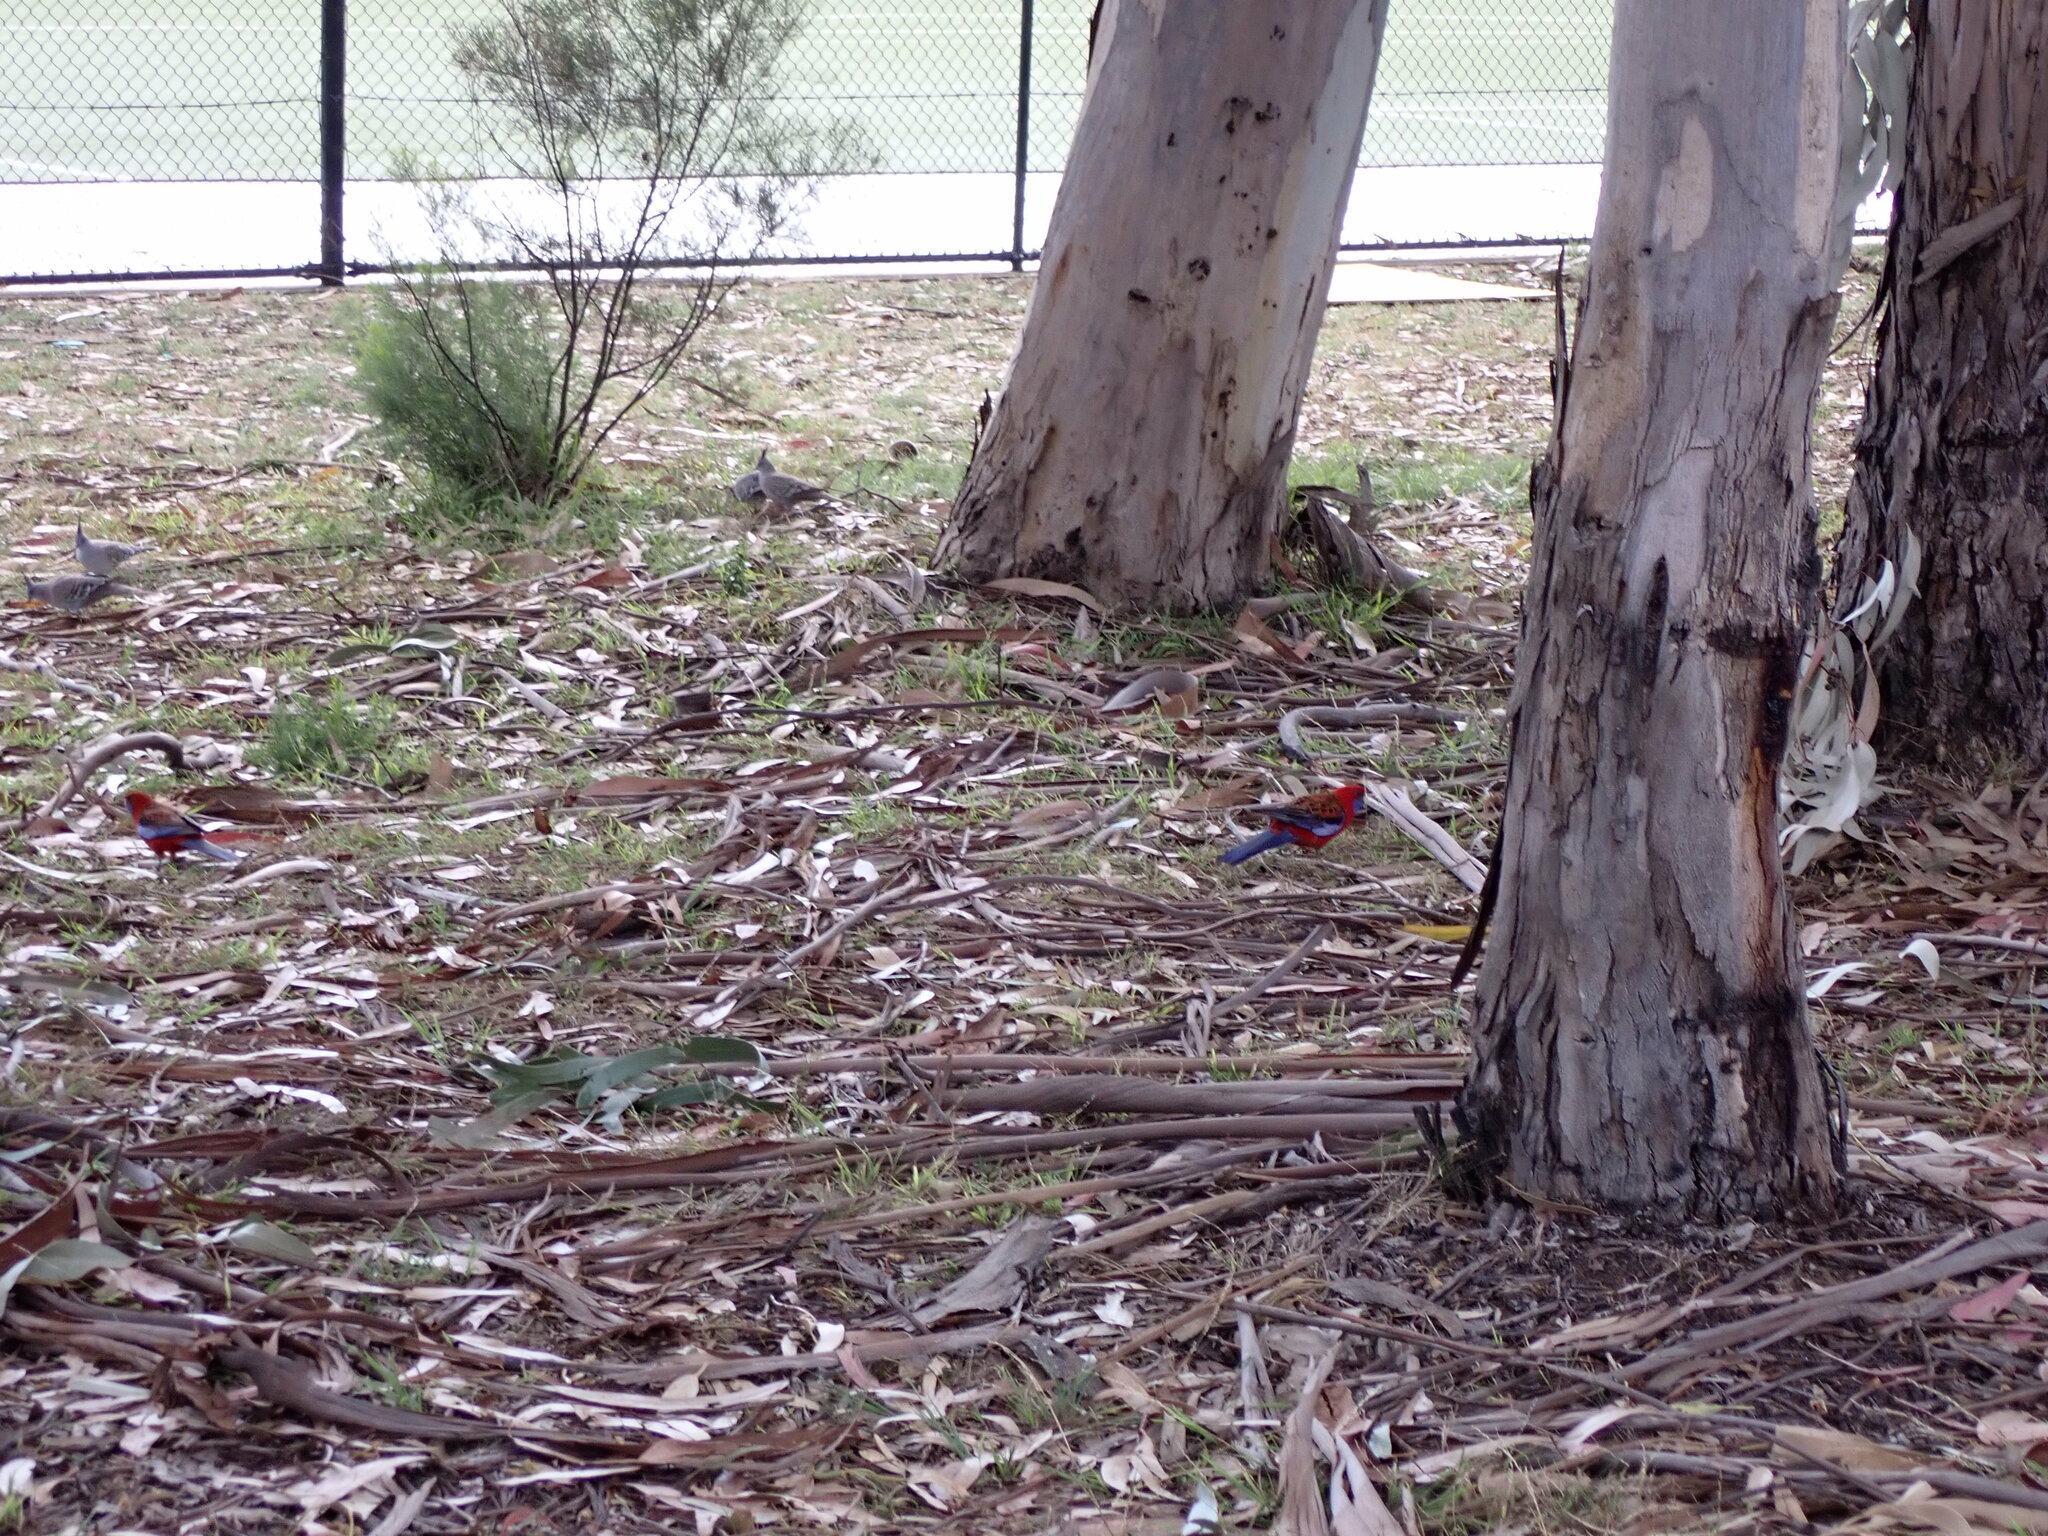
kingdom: Animalia
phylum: Chordata
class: Aves
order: Psittaciformes
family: Psittacidae
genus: Platycercus
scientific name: Platycercus elegans
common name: Crimson rosella
